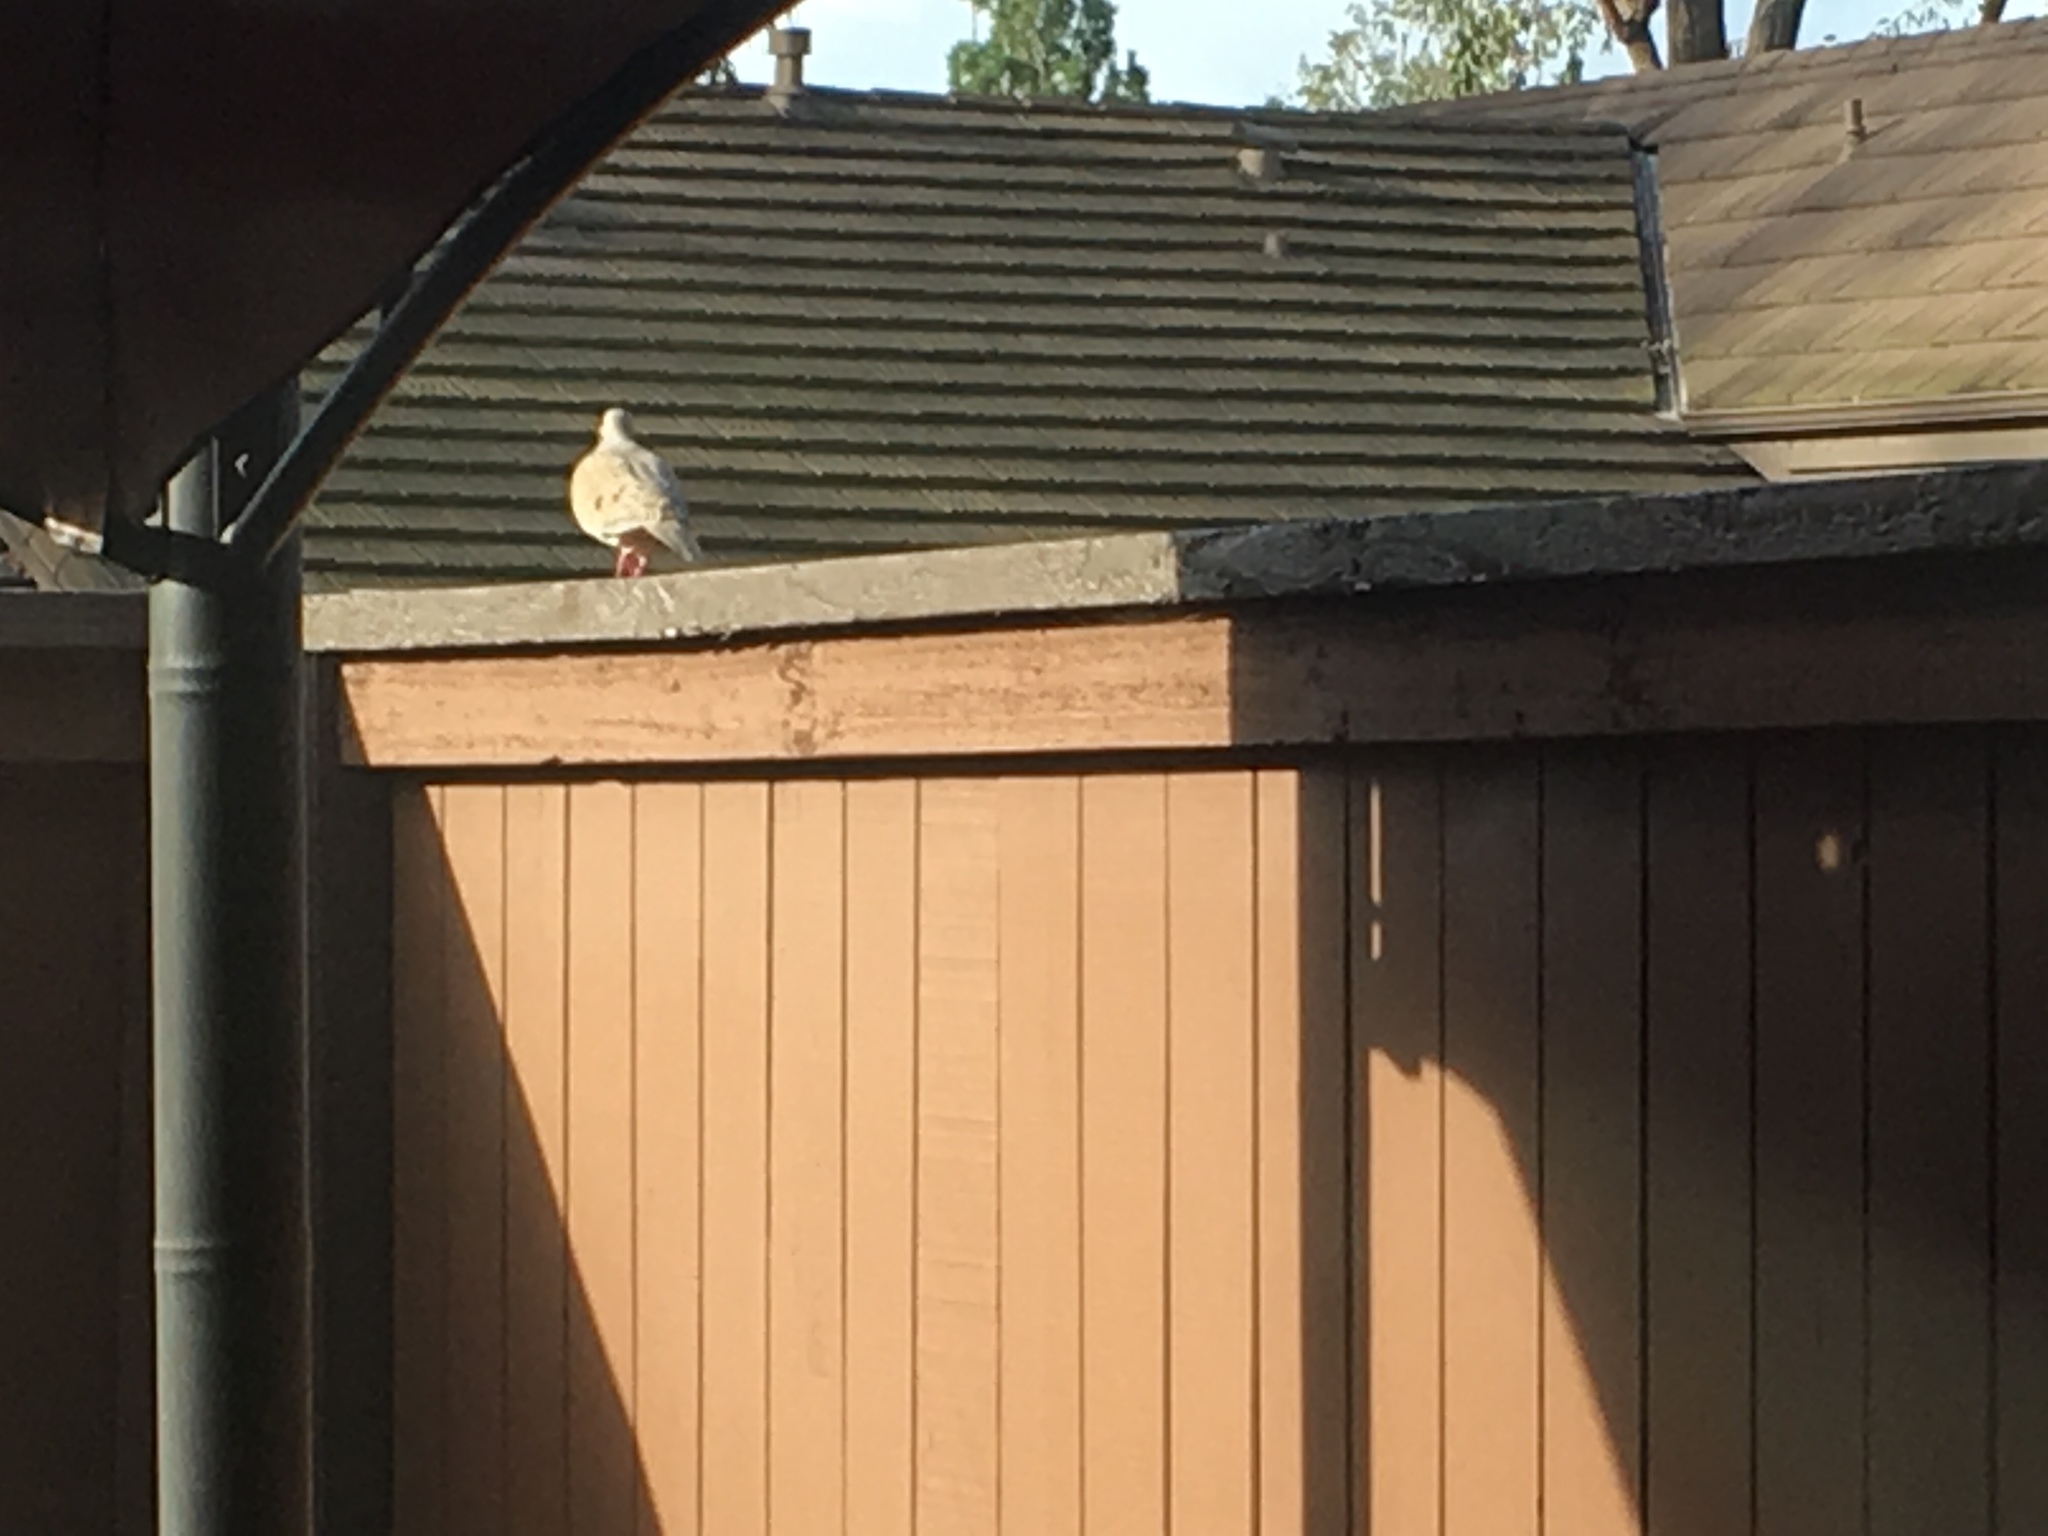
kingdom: Animalia
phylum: Chordata
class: Aves
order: Columbiformes
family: Columbidae
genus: Zenaida
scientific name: Zenaida macroura
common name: Mourning dove
